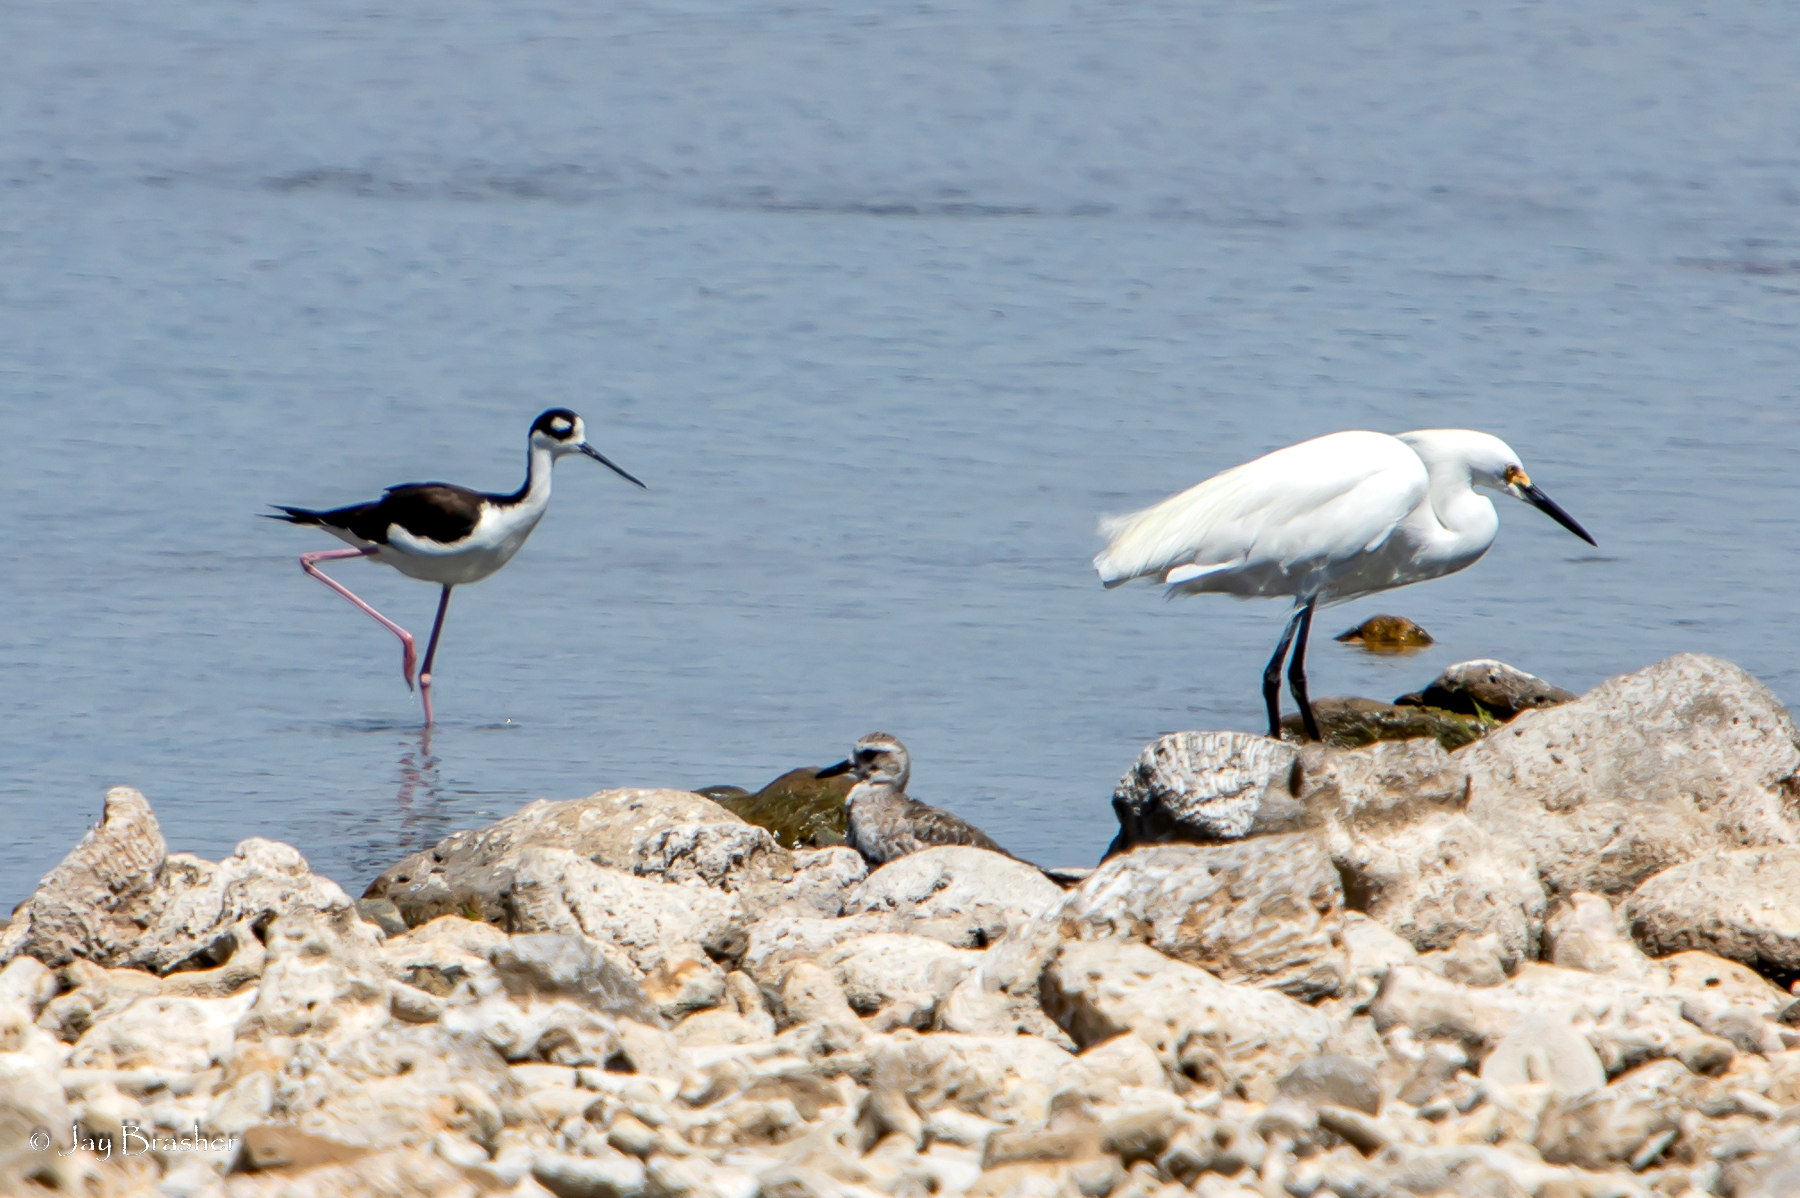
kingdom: Animalia
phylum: Chordata
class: Aves
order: Charadriiformes
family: Recurvirostridae
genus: Himantopus
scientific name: Himantopus mexicanus
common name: Black-necked stilt
